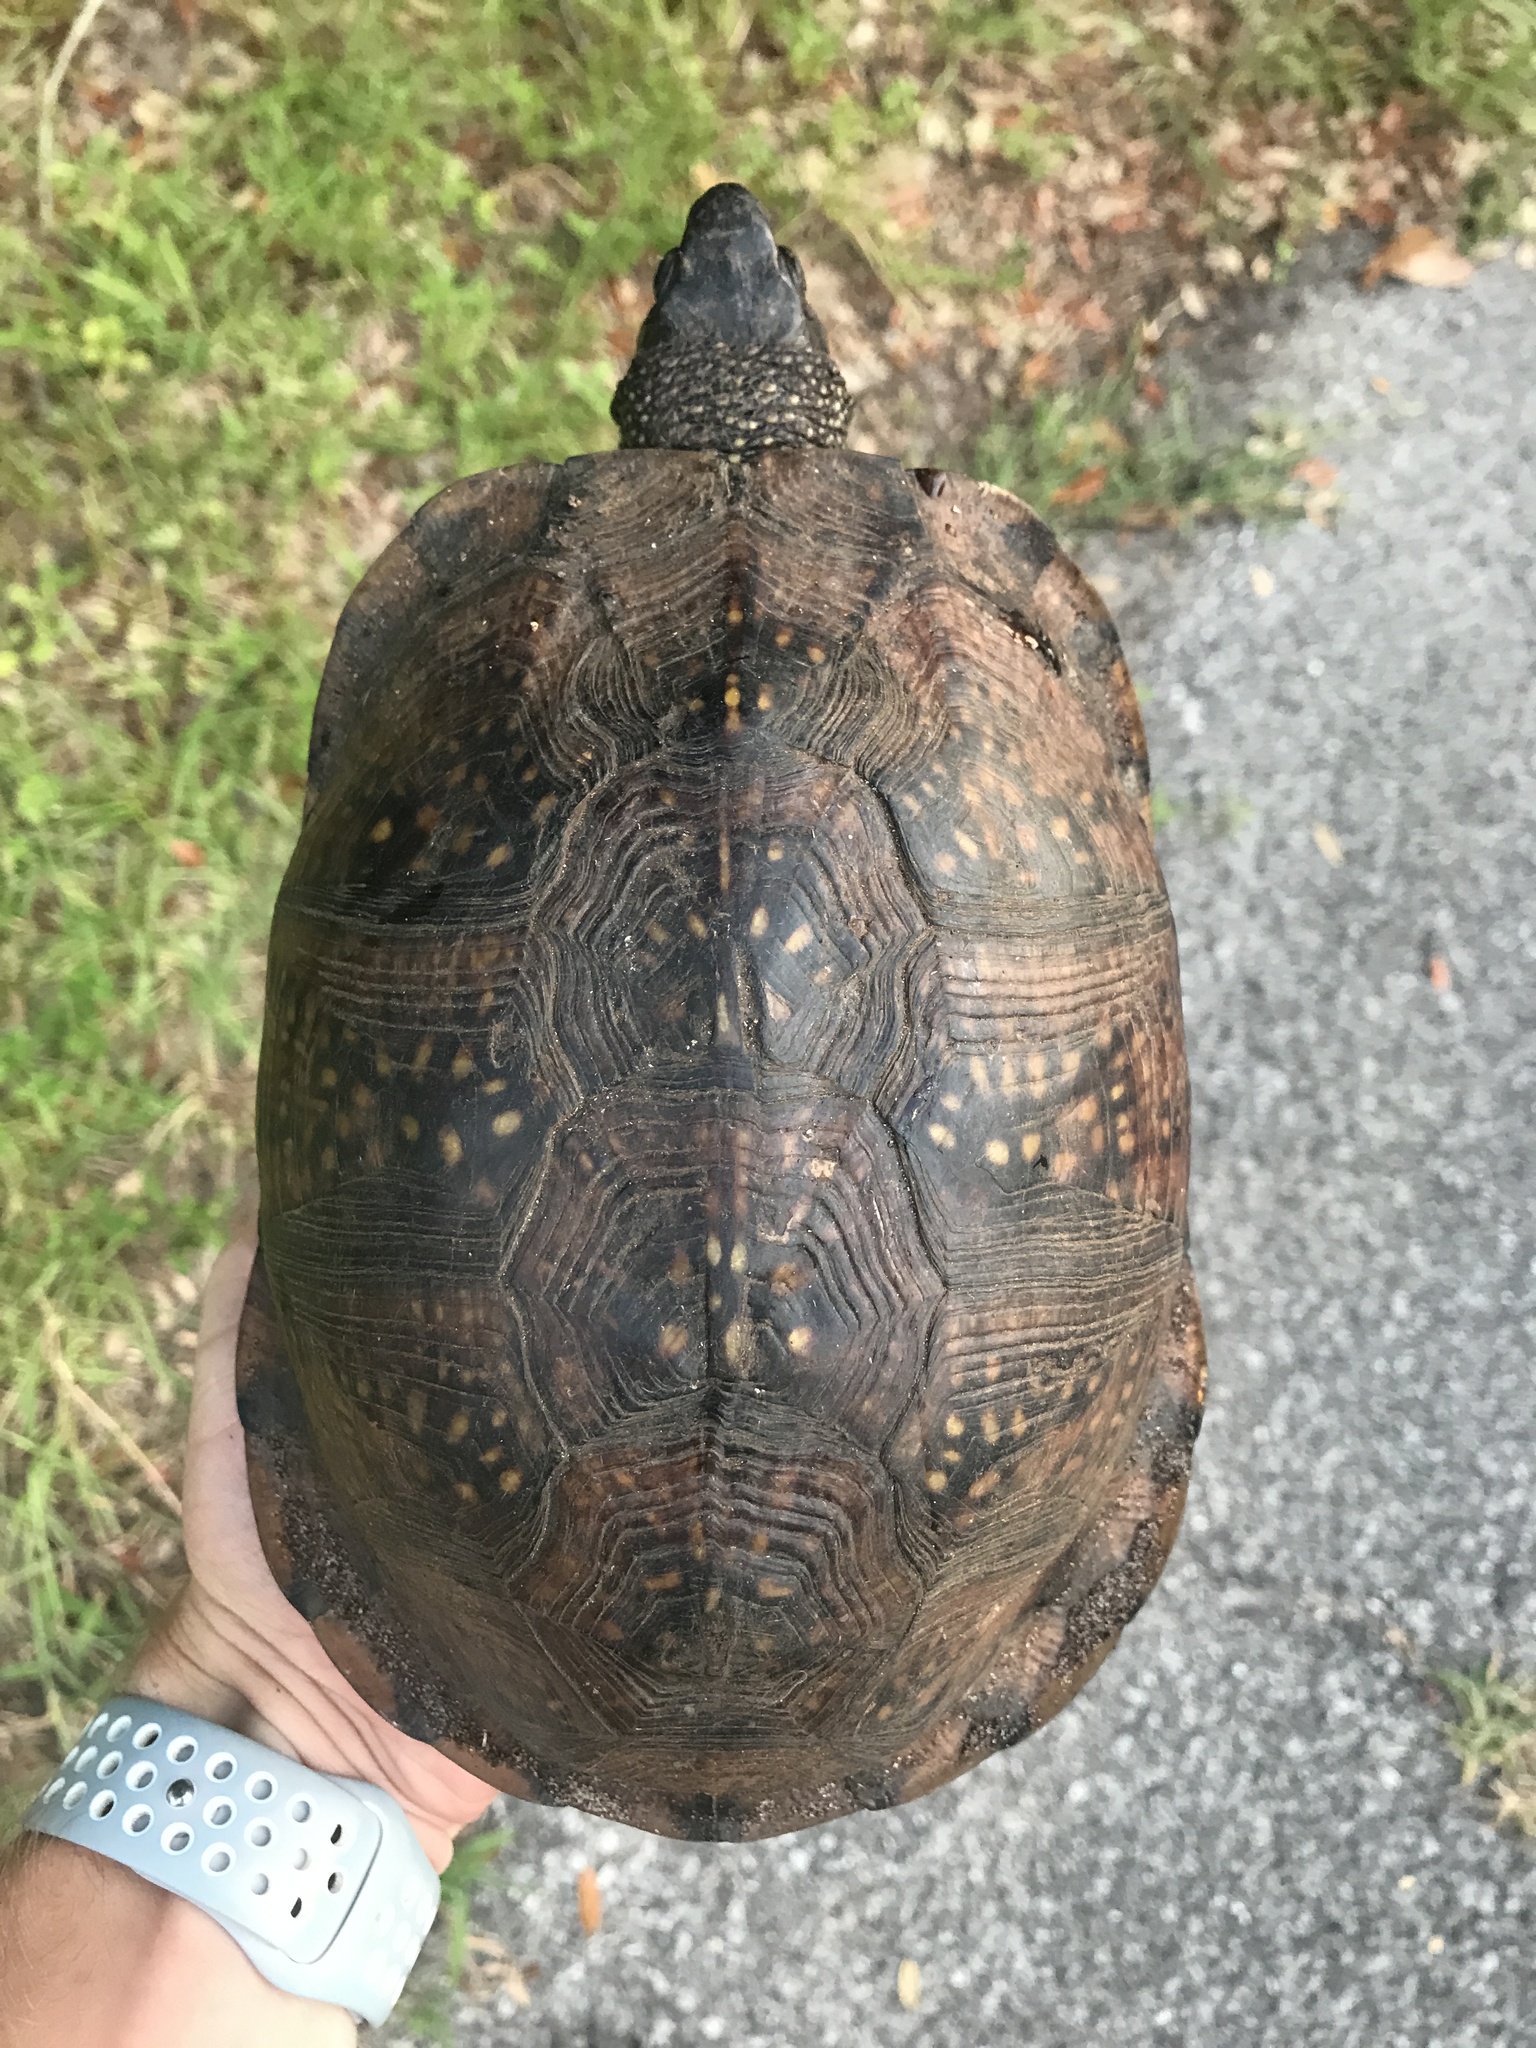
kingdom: Animalia
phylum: Chordata
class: Testudines
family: Emydidae
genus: Terrapene
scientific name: Terrapene carolina
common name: Common box turtle
